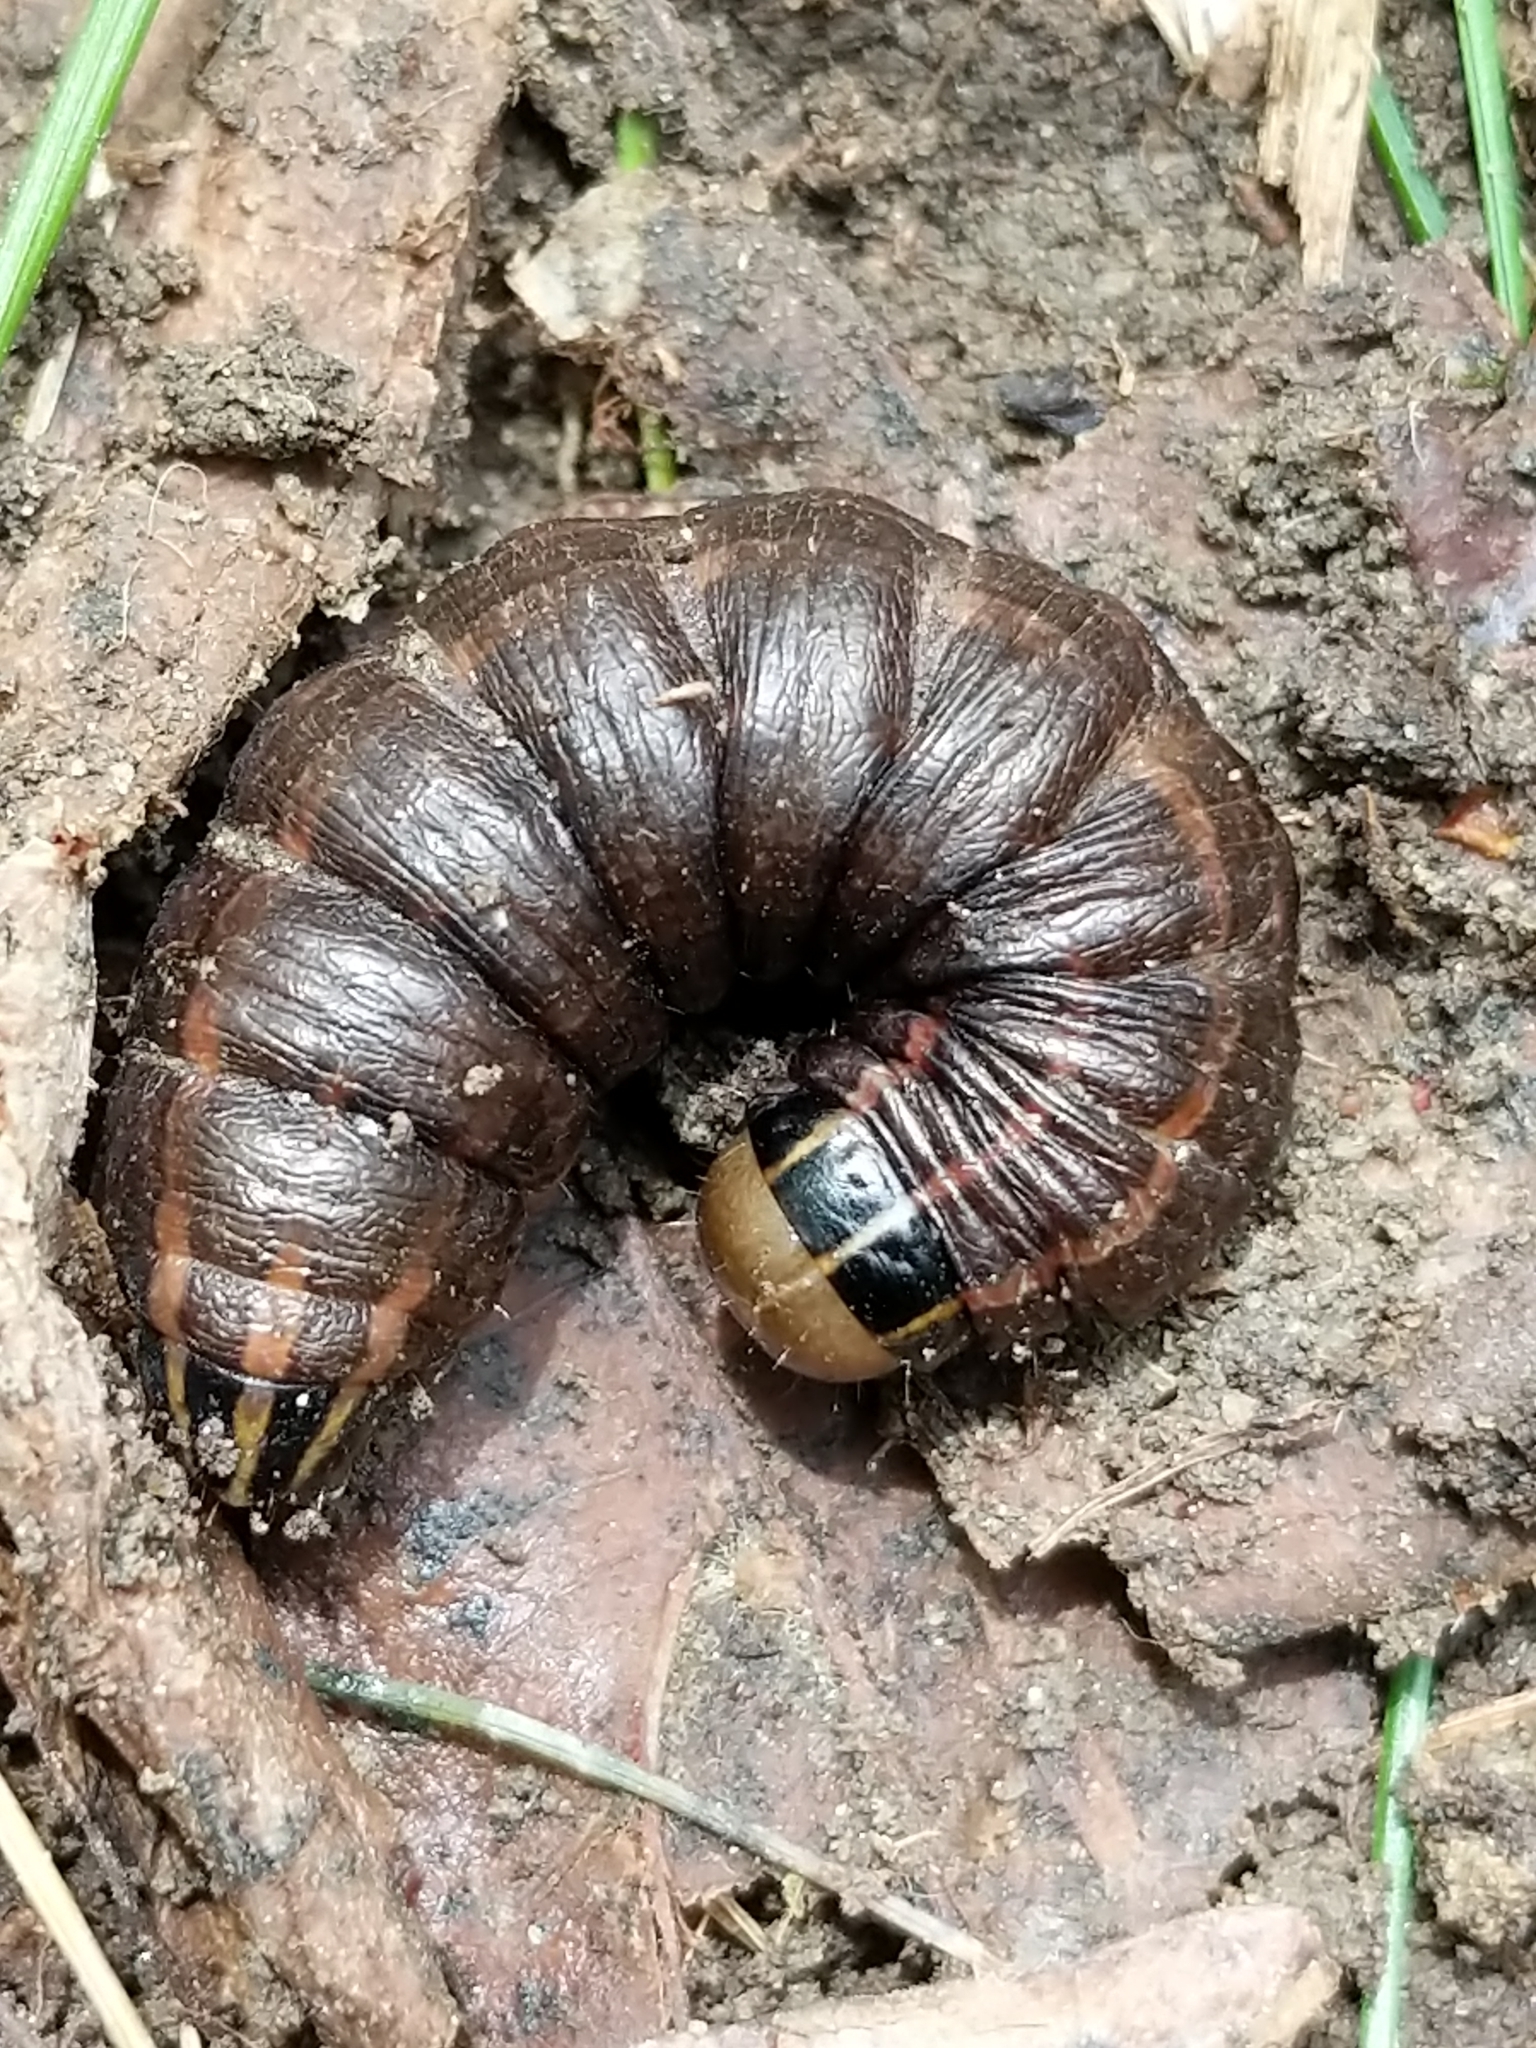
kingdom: Animalia
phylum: Arthropoda
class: Insecta
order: Lepidoptera
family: Noctuidae
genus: Nephelodes
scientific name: Nephelodes minians
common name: Bronzed cutworm
